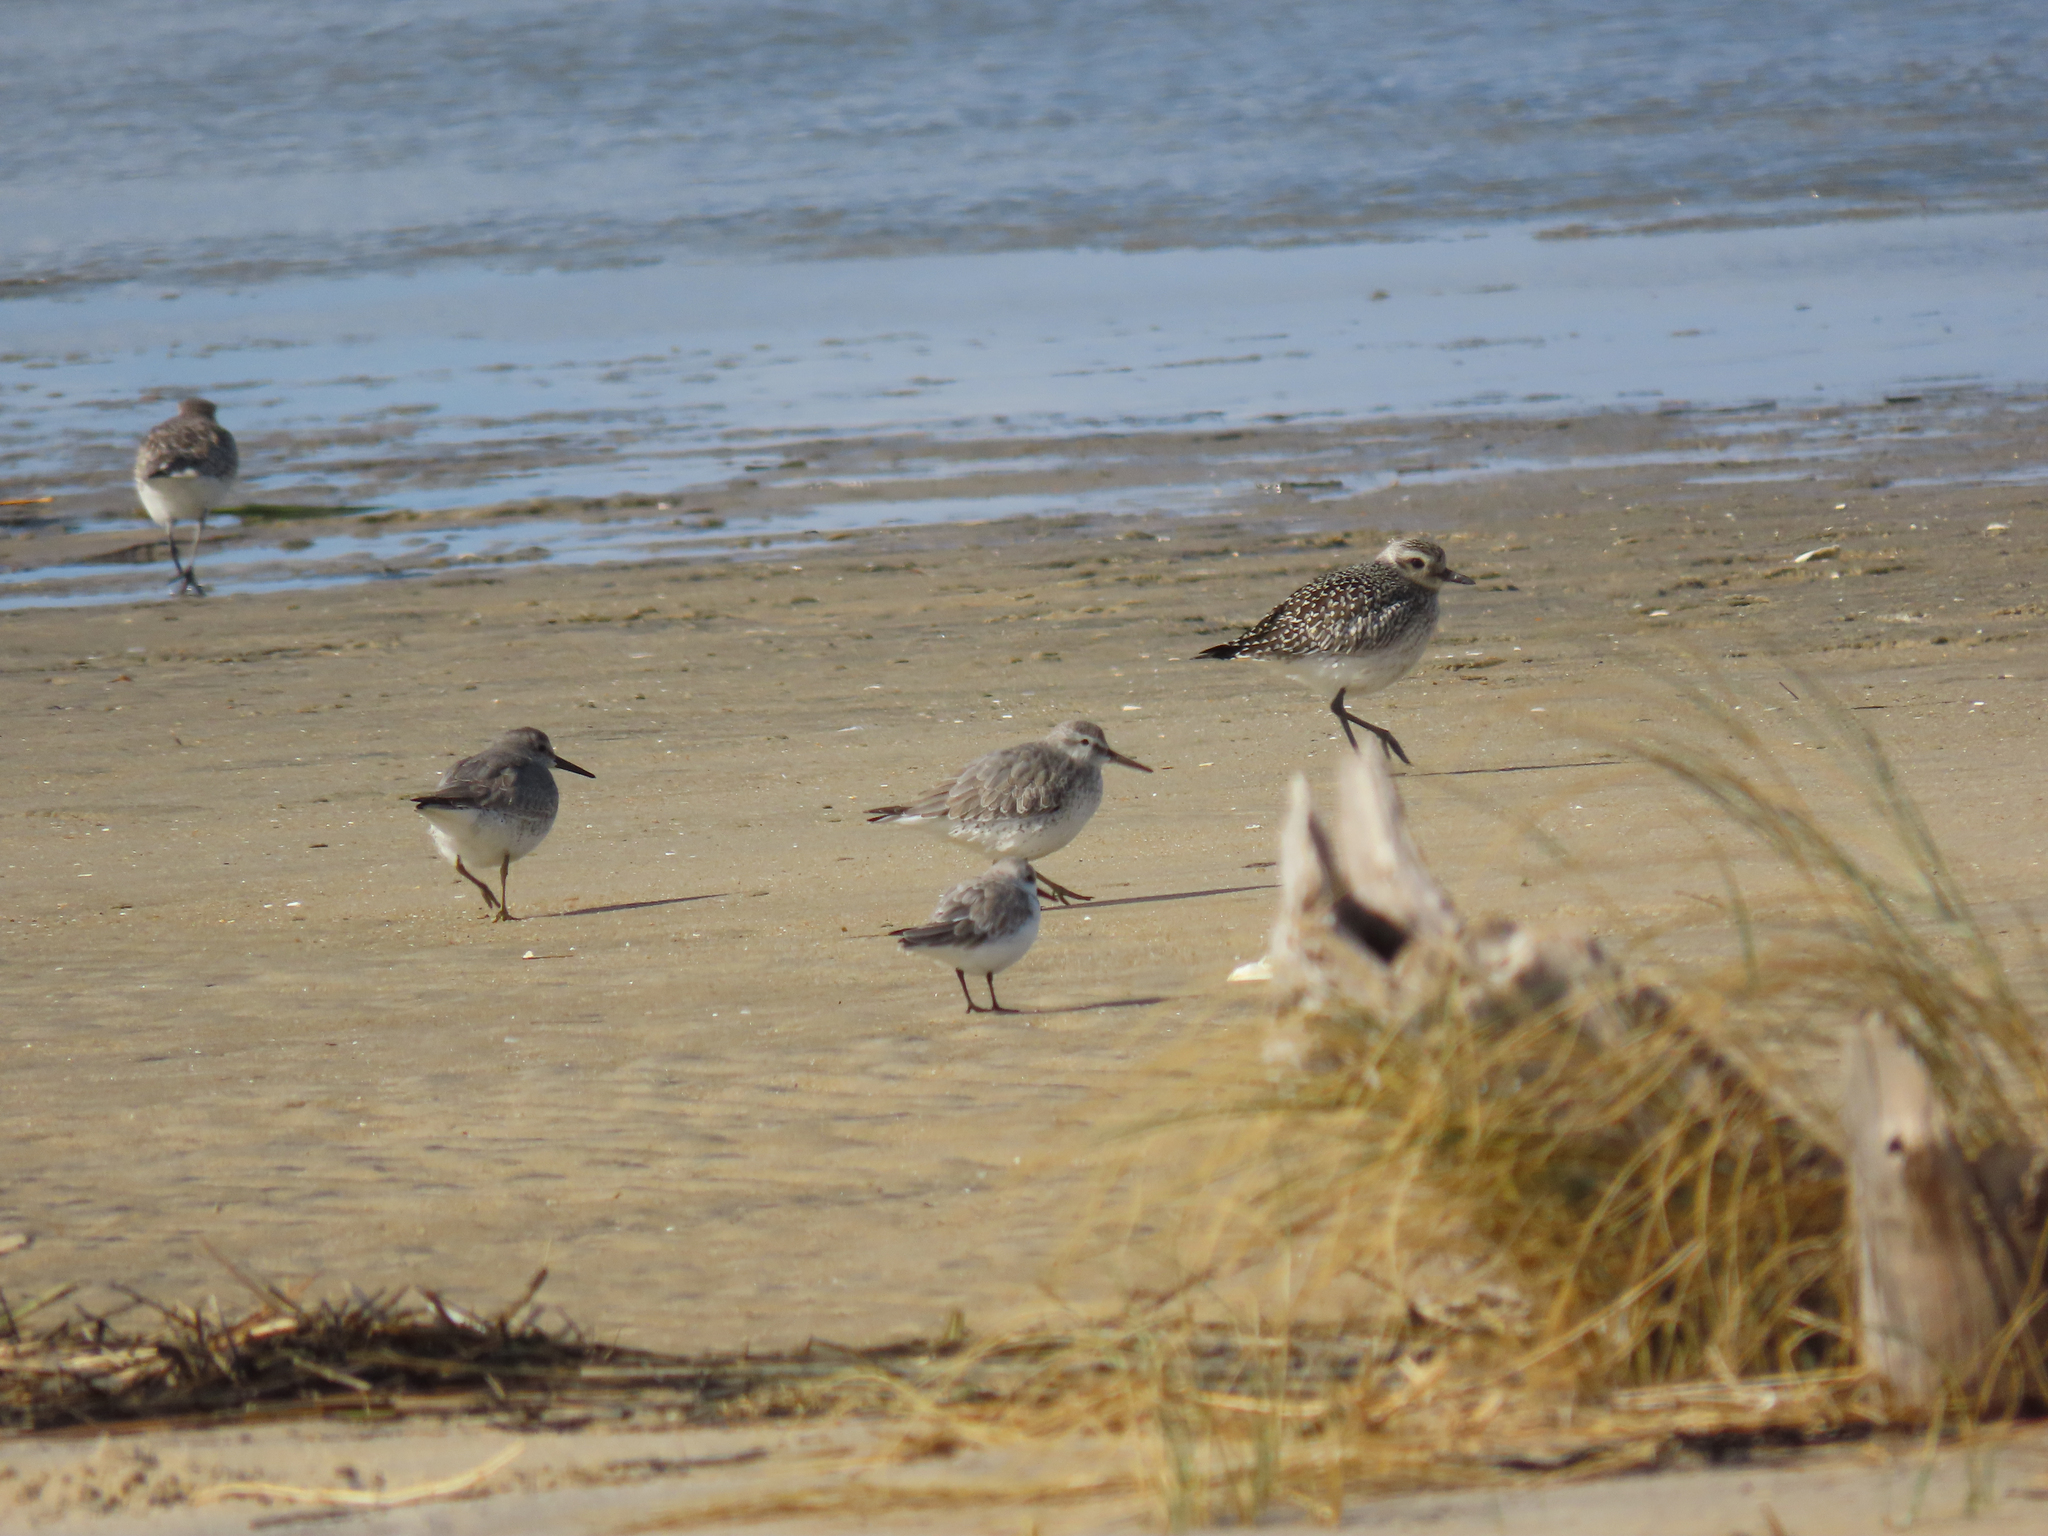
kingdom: Animalia
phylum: Chordata
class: Aves
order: Charadriiformes
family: Scolopacidae
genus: Calidris
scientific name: Calidris canutus
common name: Red knot
